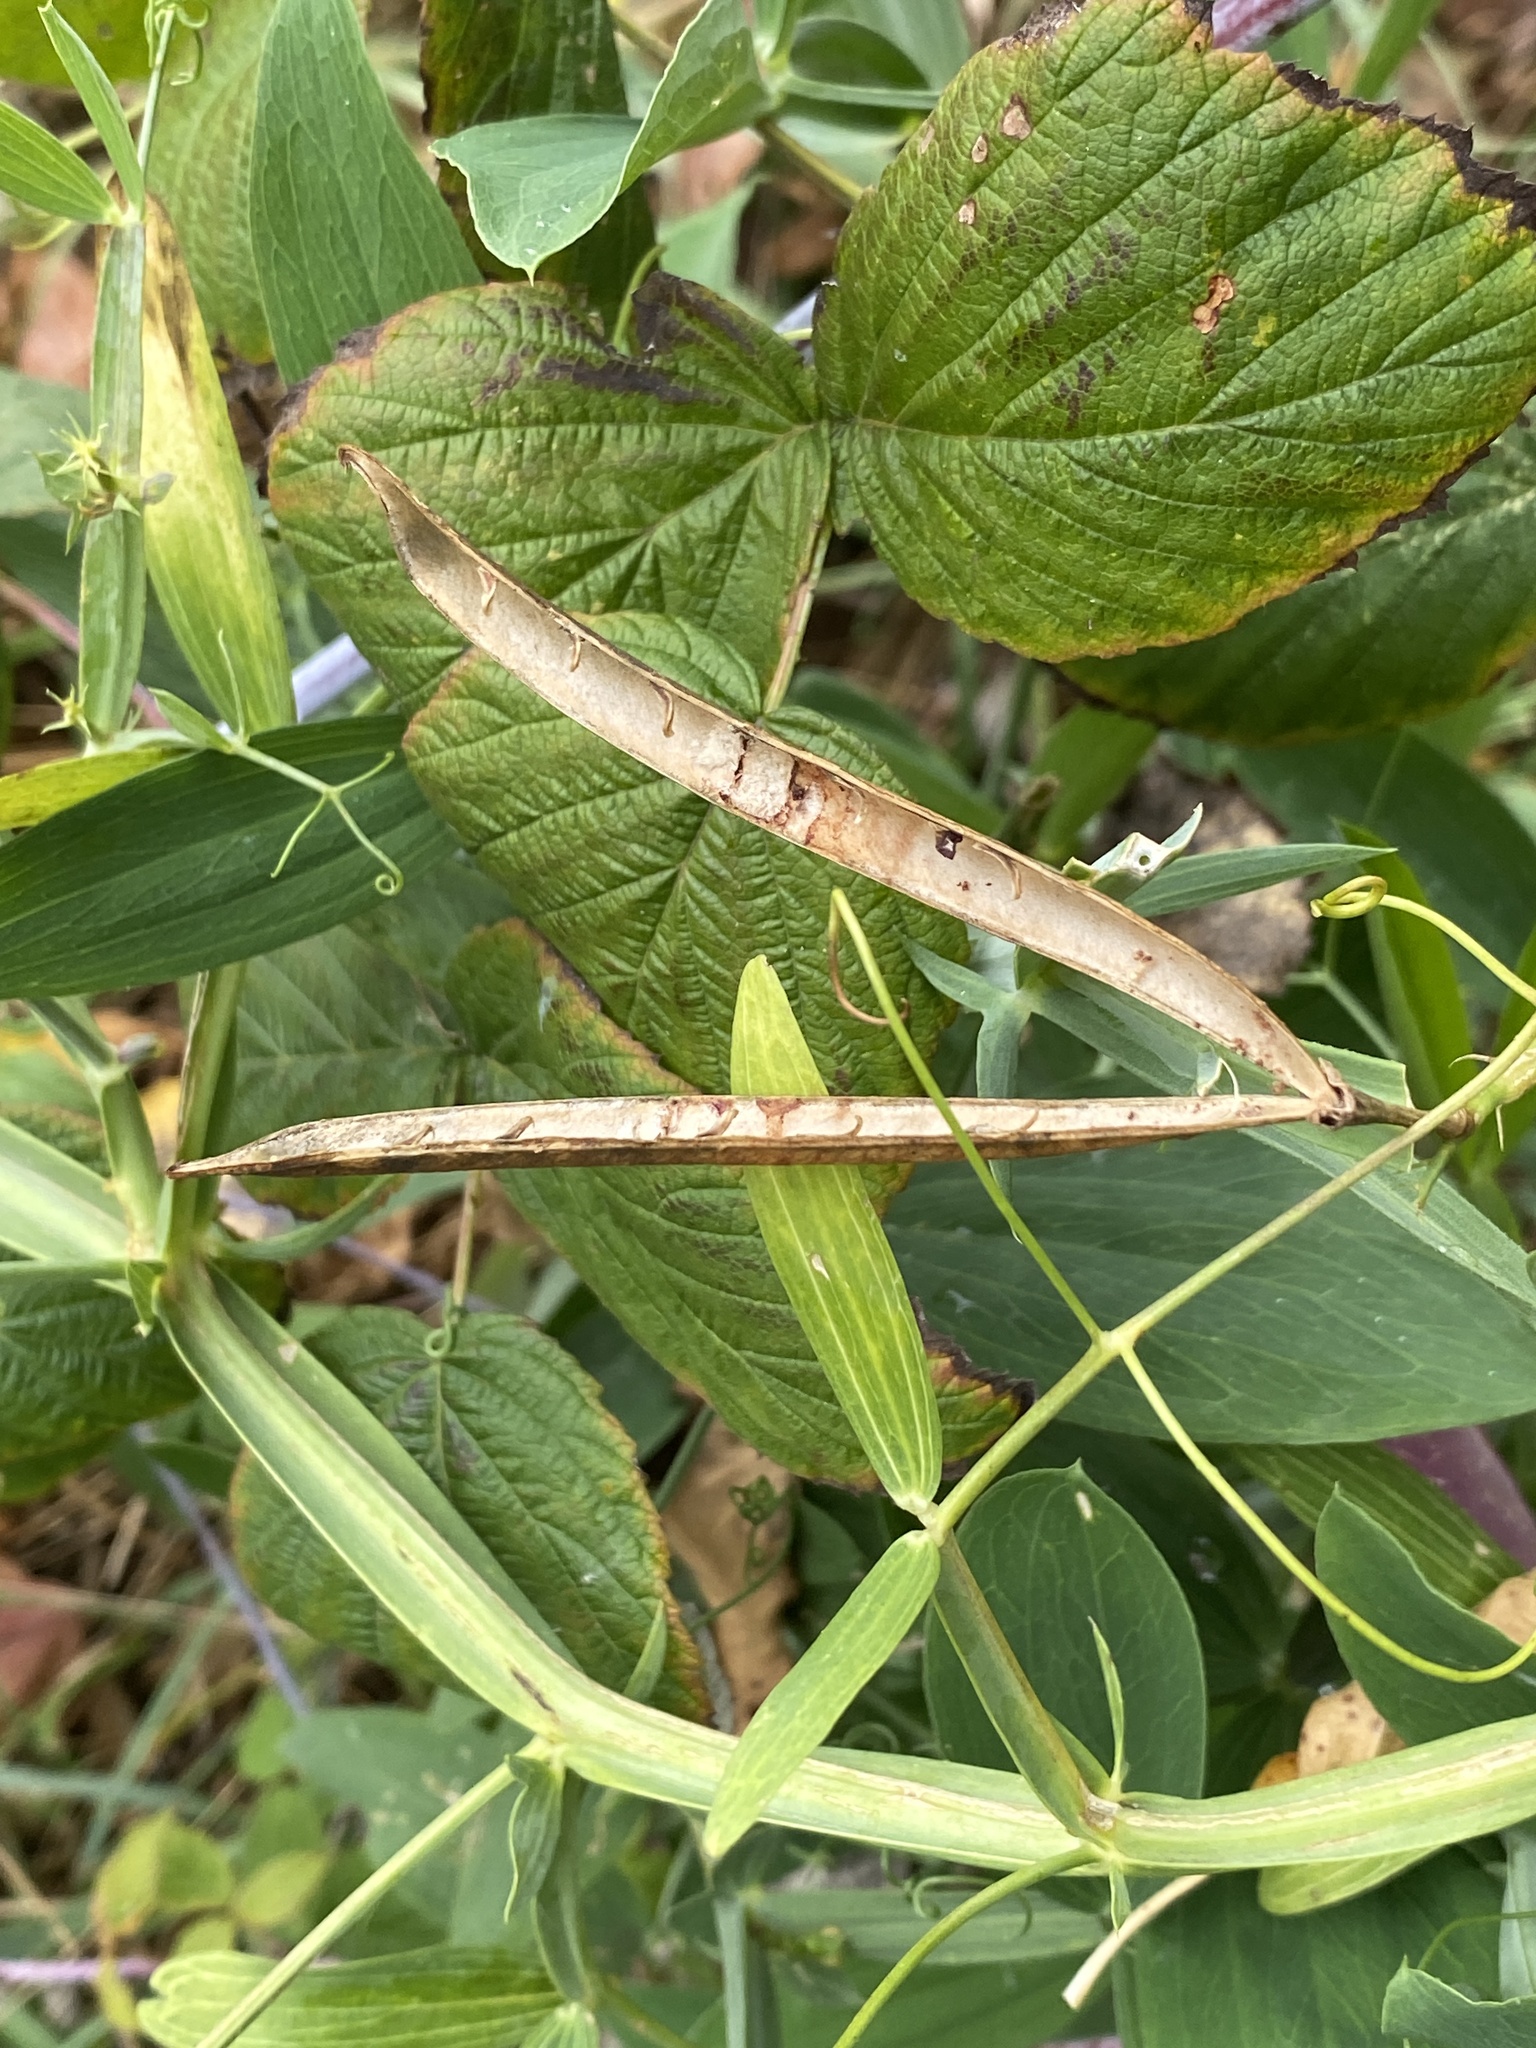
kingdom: Plantae
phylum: Tracheophyta
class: Magnoliopsida
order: Fabales
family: Fabaceae
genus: Lathyrus
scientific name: Lathyrus latifolius
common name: Perennial pea
